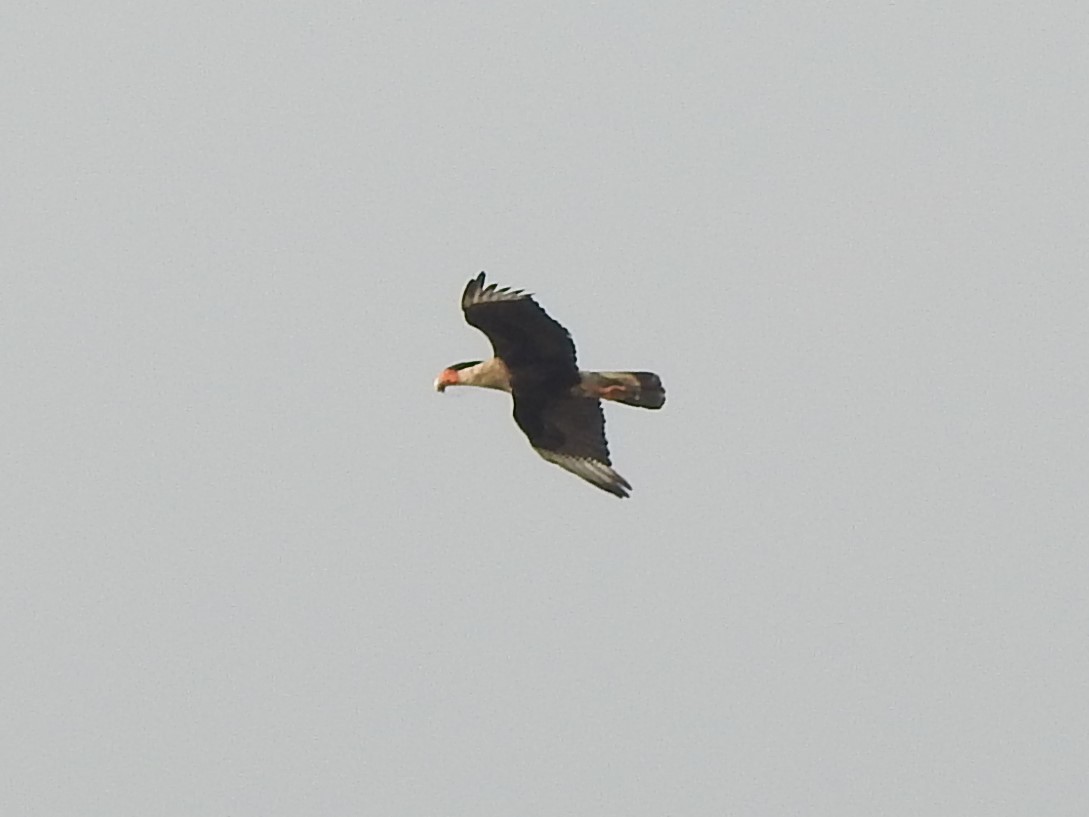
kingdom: Animalia
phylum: Chordata
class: Aves
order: Falconiformes
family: Falconidae
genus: Caracara
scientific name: Caracara plancus
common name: Southern caracara
